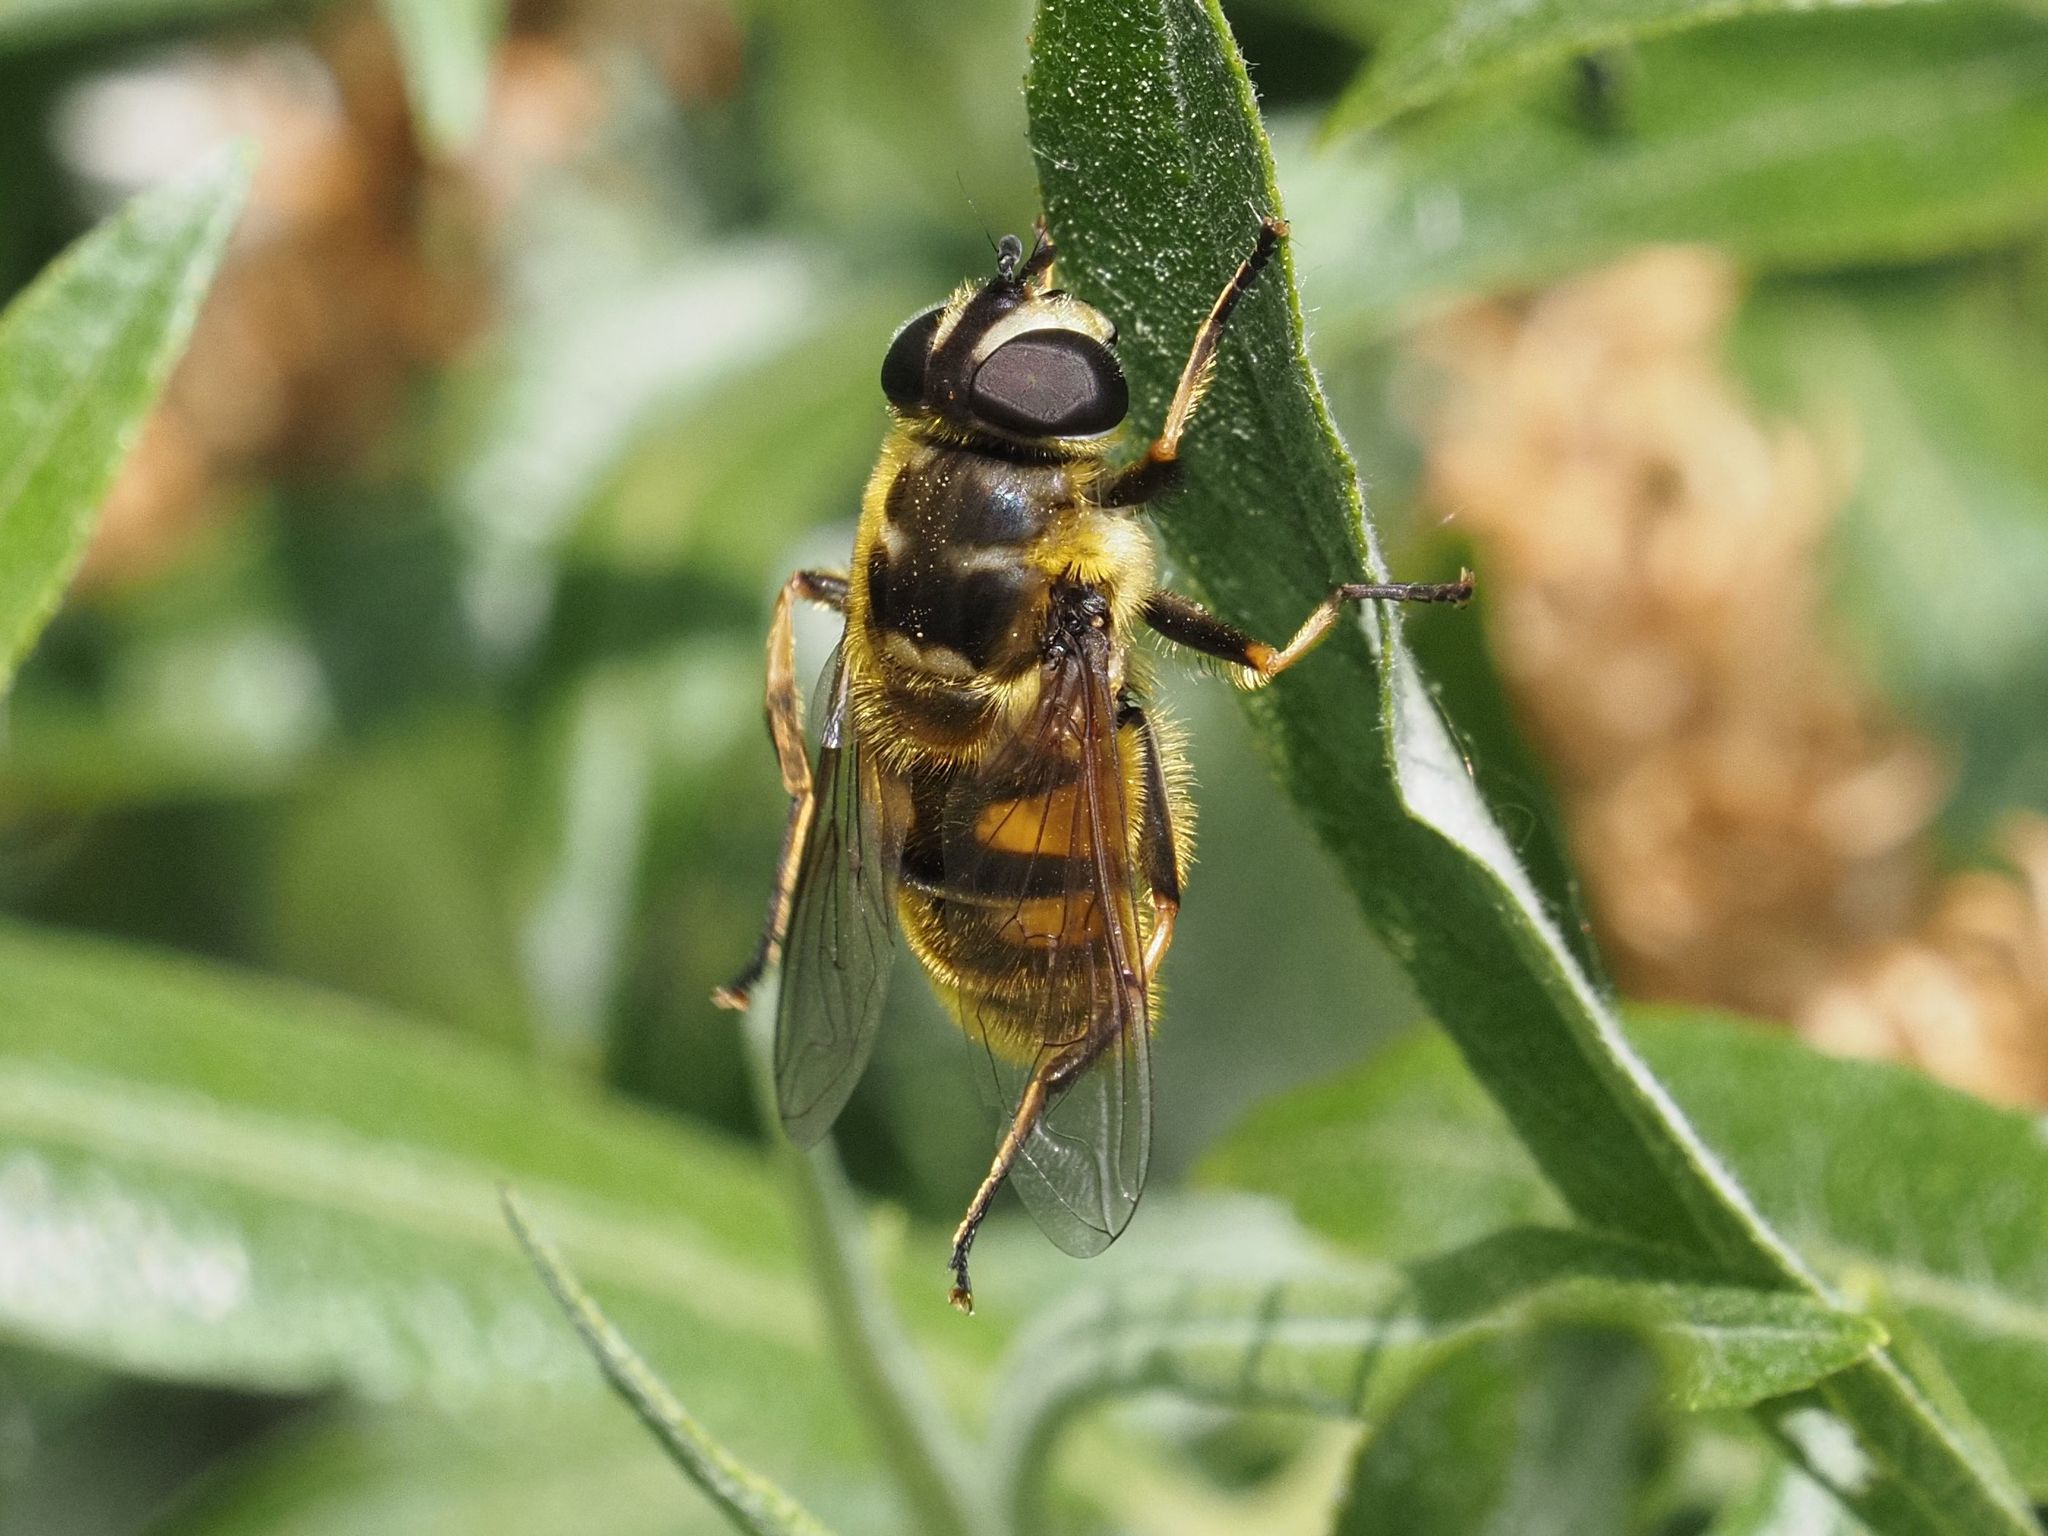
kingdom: Animalia
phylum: Arthropoda
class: Insecta
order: Diptera
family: Syrphidae
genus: Myathropa
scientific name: Myathropa florea
